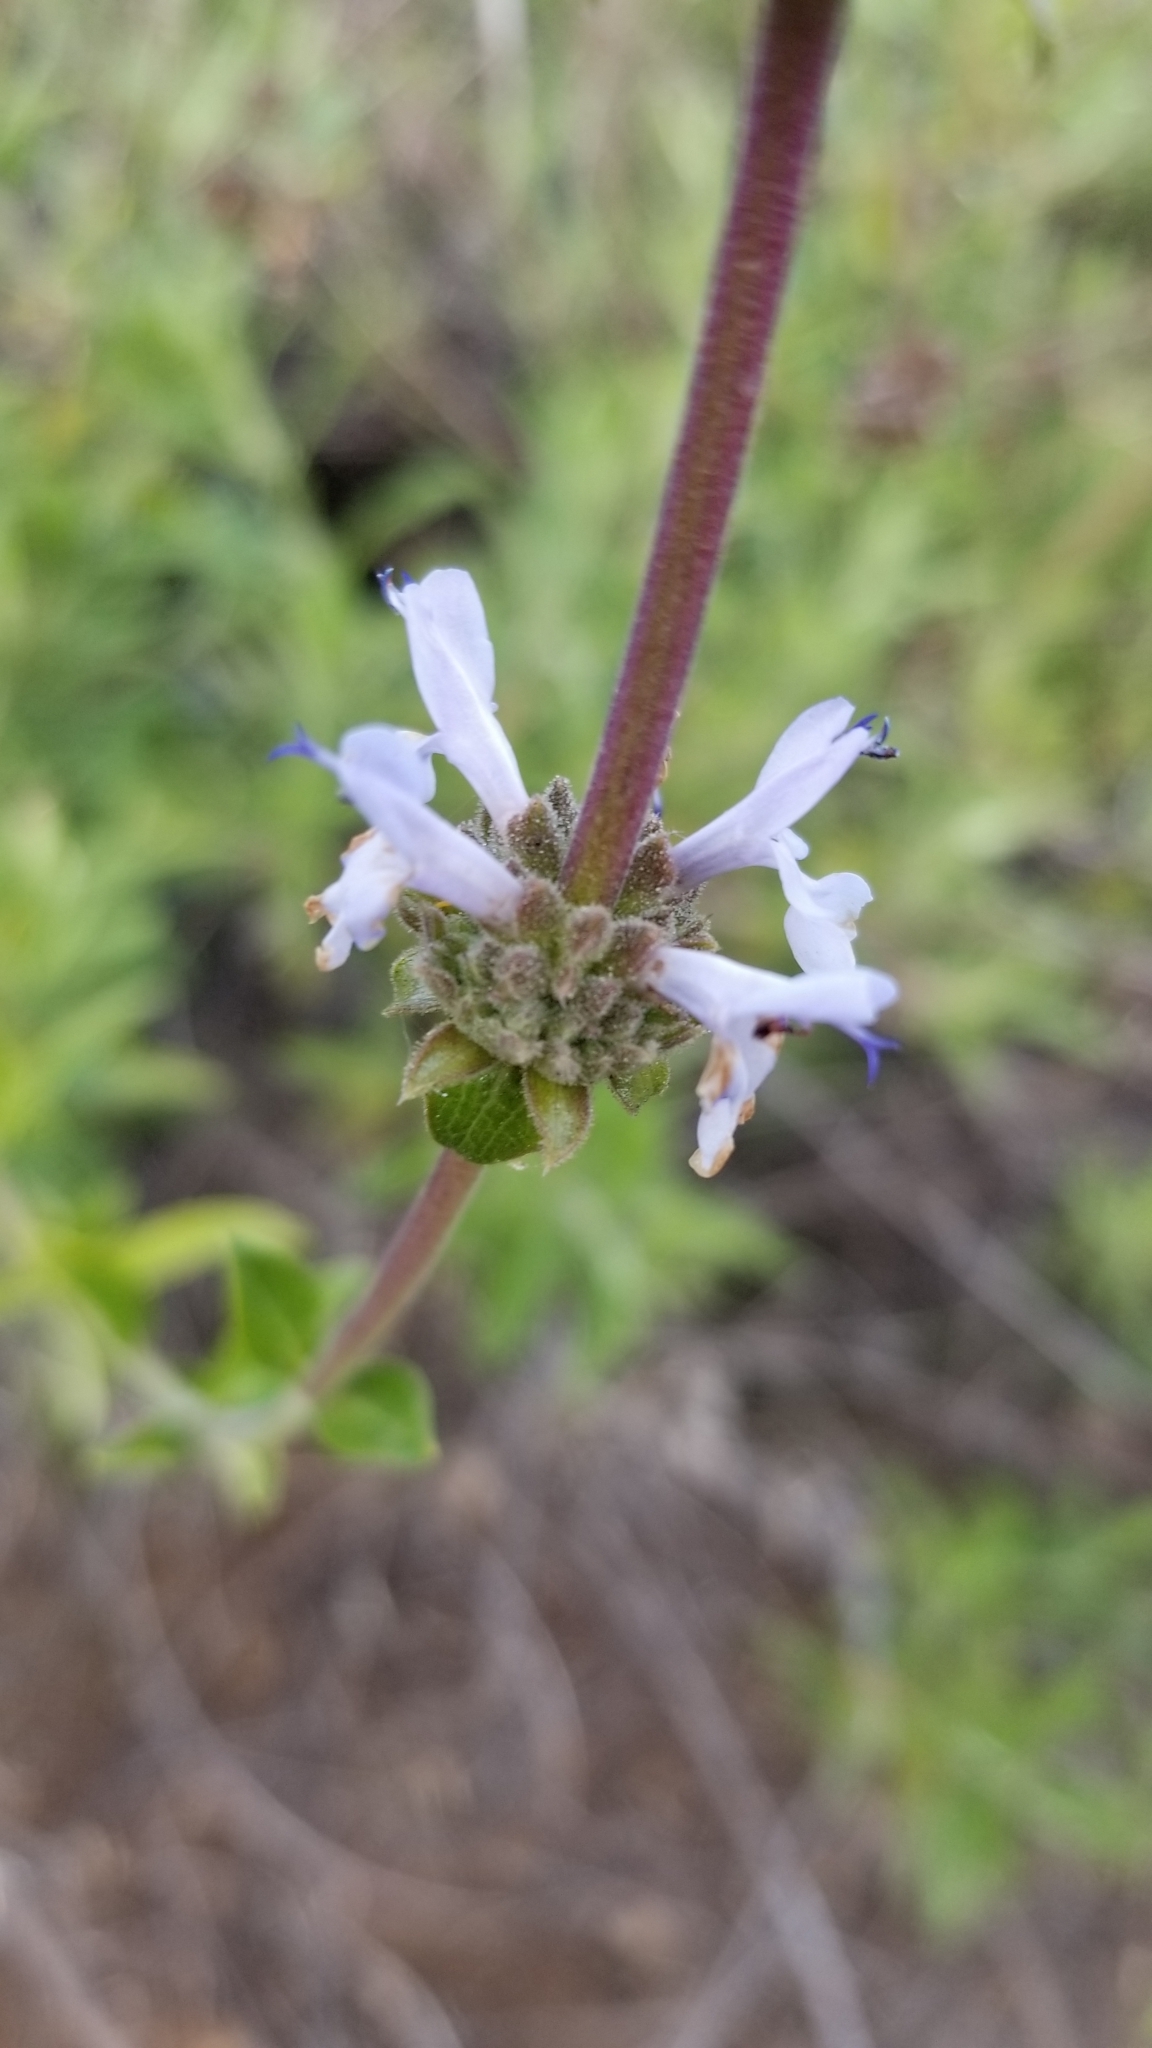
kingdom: Plantae
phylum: Tracheophyta
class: Magnoliopsida
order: Lamiales
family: Lamiaceae
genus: Salvia
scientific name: Salvia mellifera
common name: Black sage
